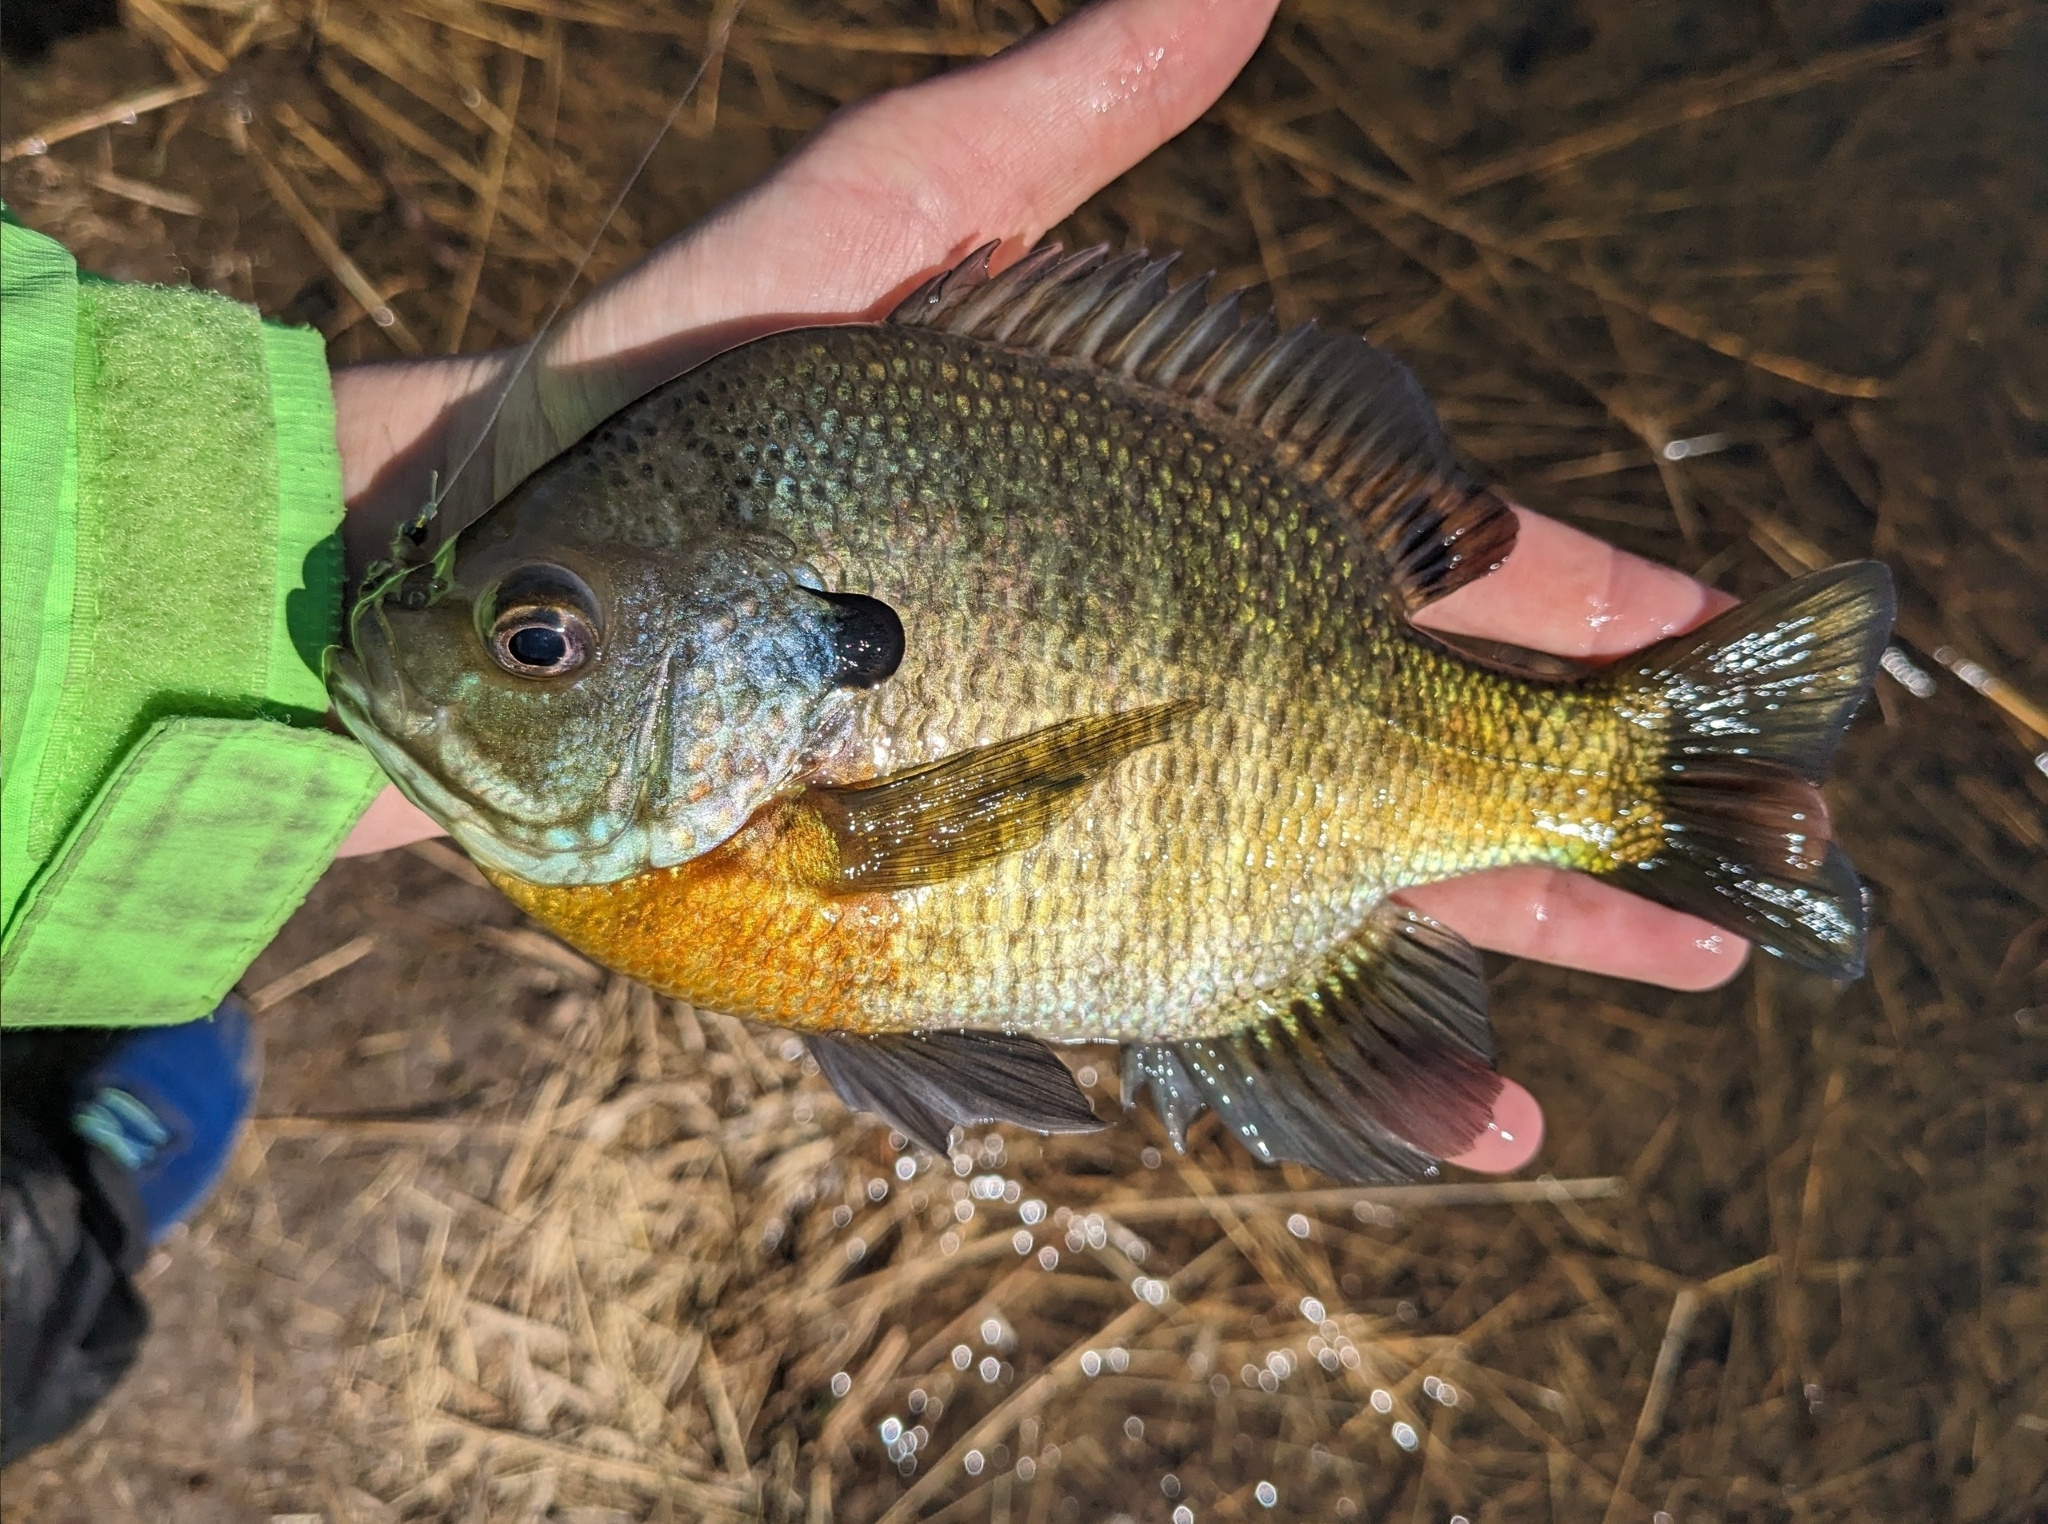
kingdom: Animalia
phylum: Chordata
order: Perciformes
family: Centrarchidae
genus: Lepomis
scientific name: Lepomis macrochirus
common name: Bluegill
